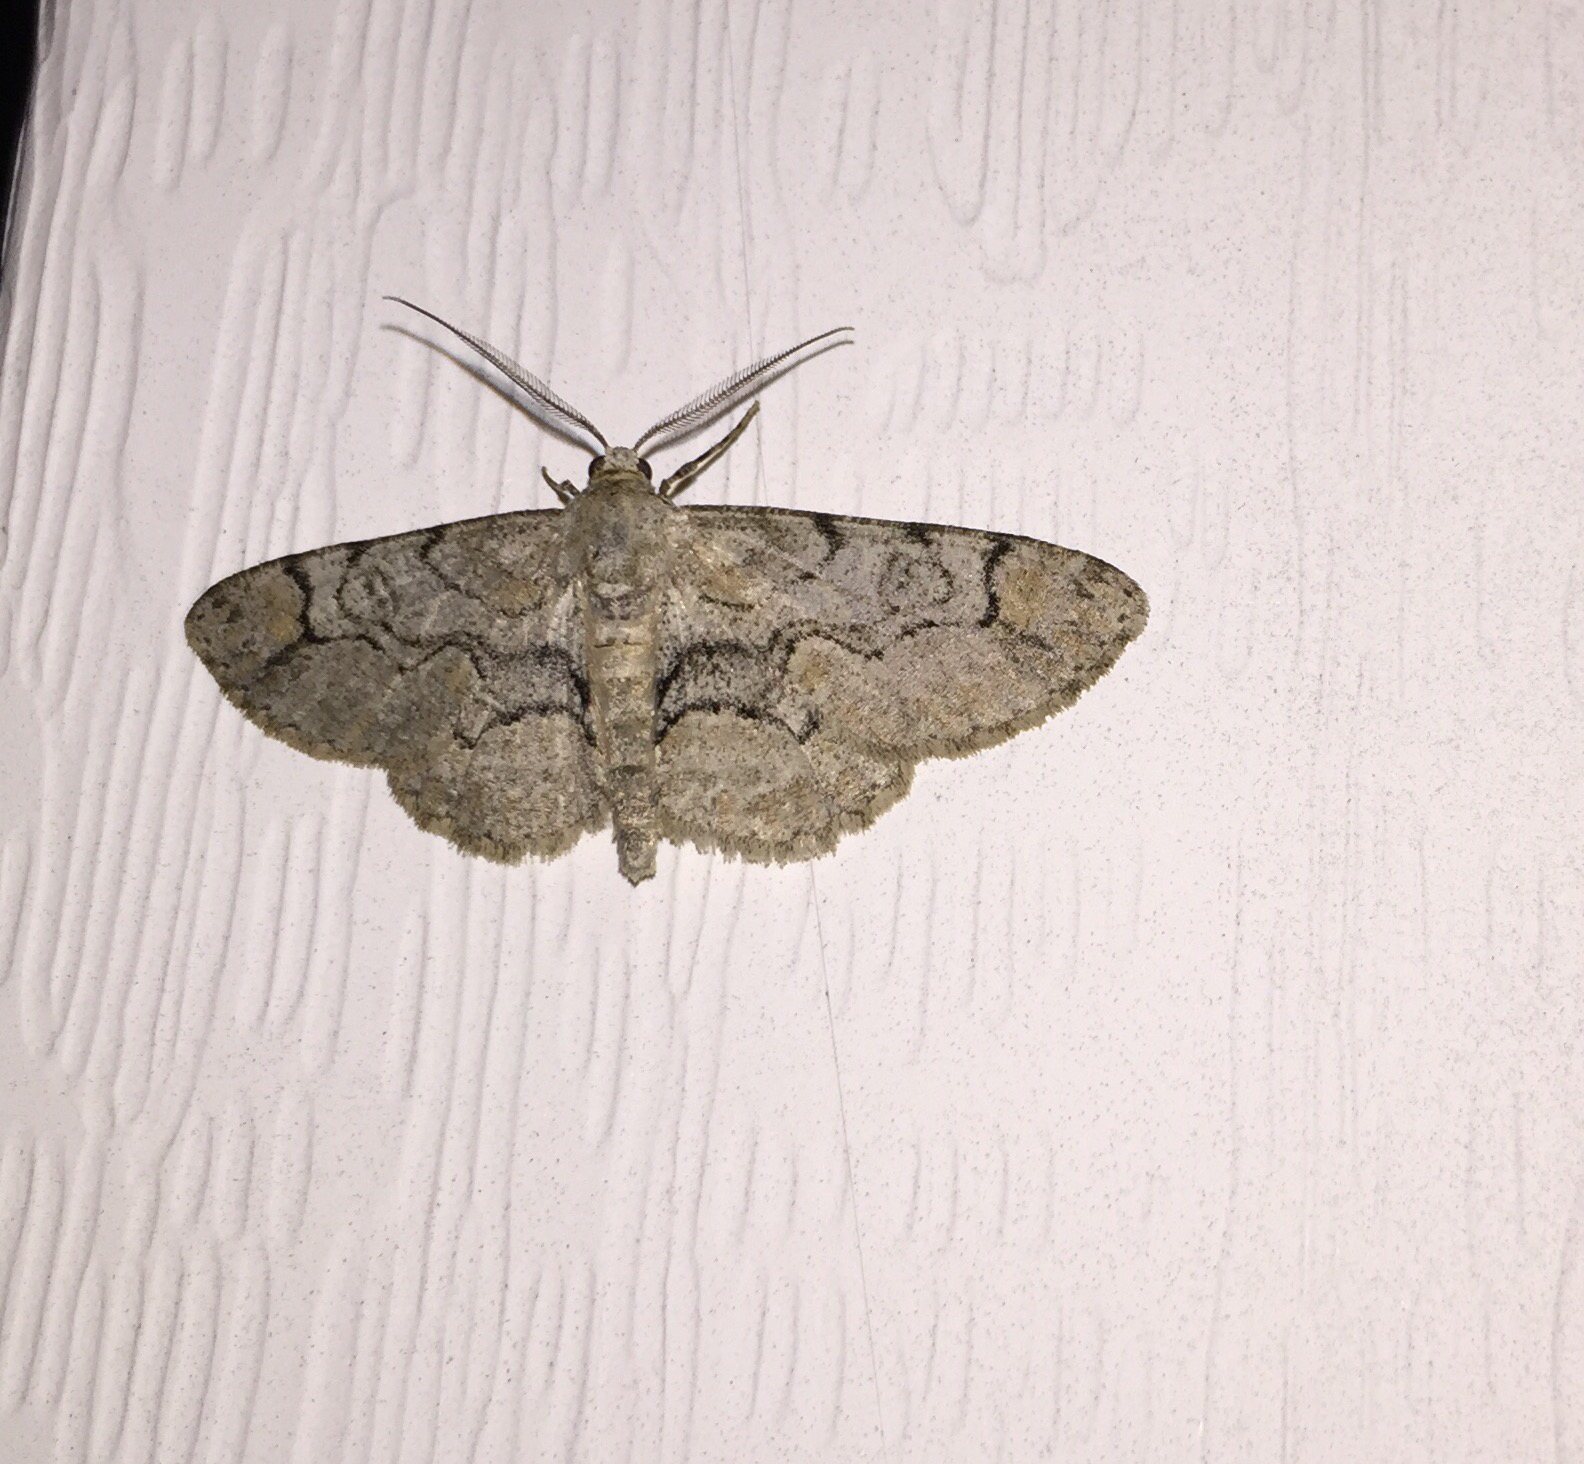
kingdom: Animalia
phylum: Arthropoda
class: Insecta
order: Lepidoptera
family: Geometridae
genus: Iridopsis
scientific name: Iridopsis larvaria
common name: Bent-line gray
